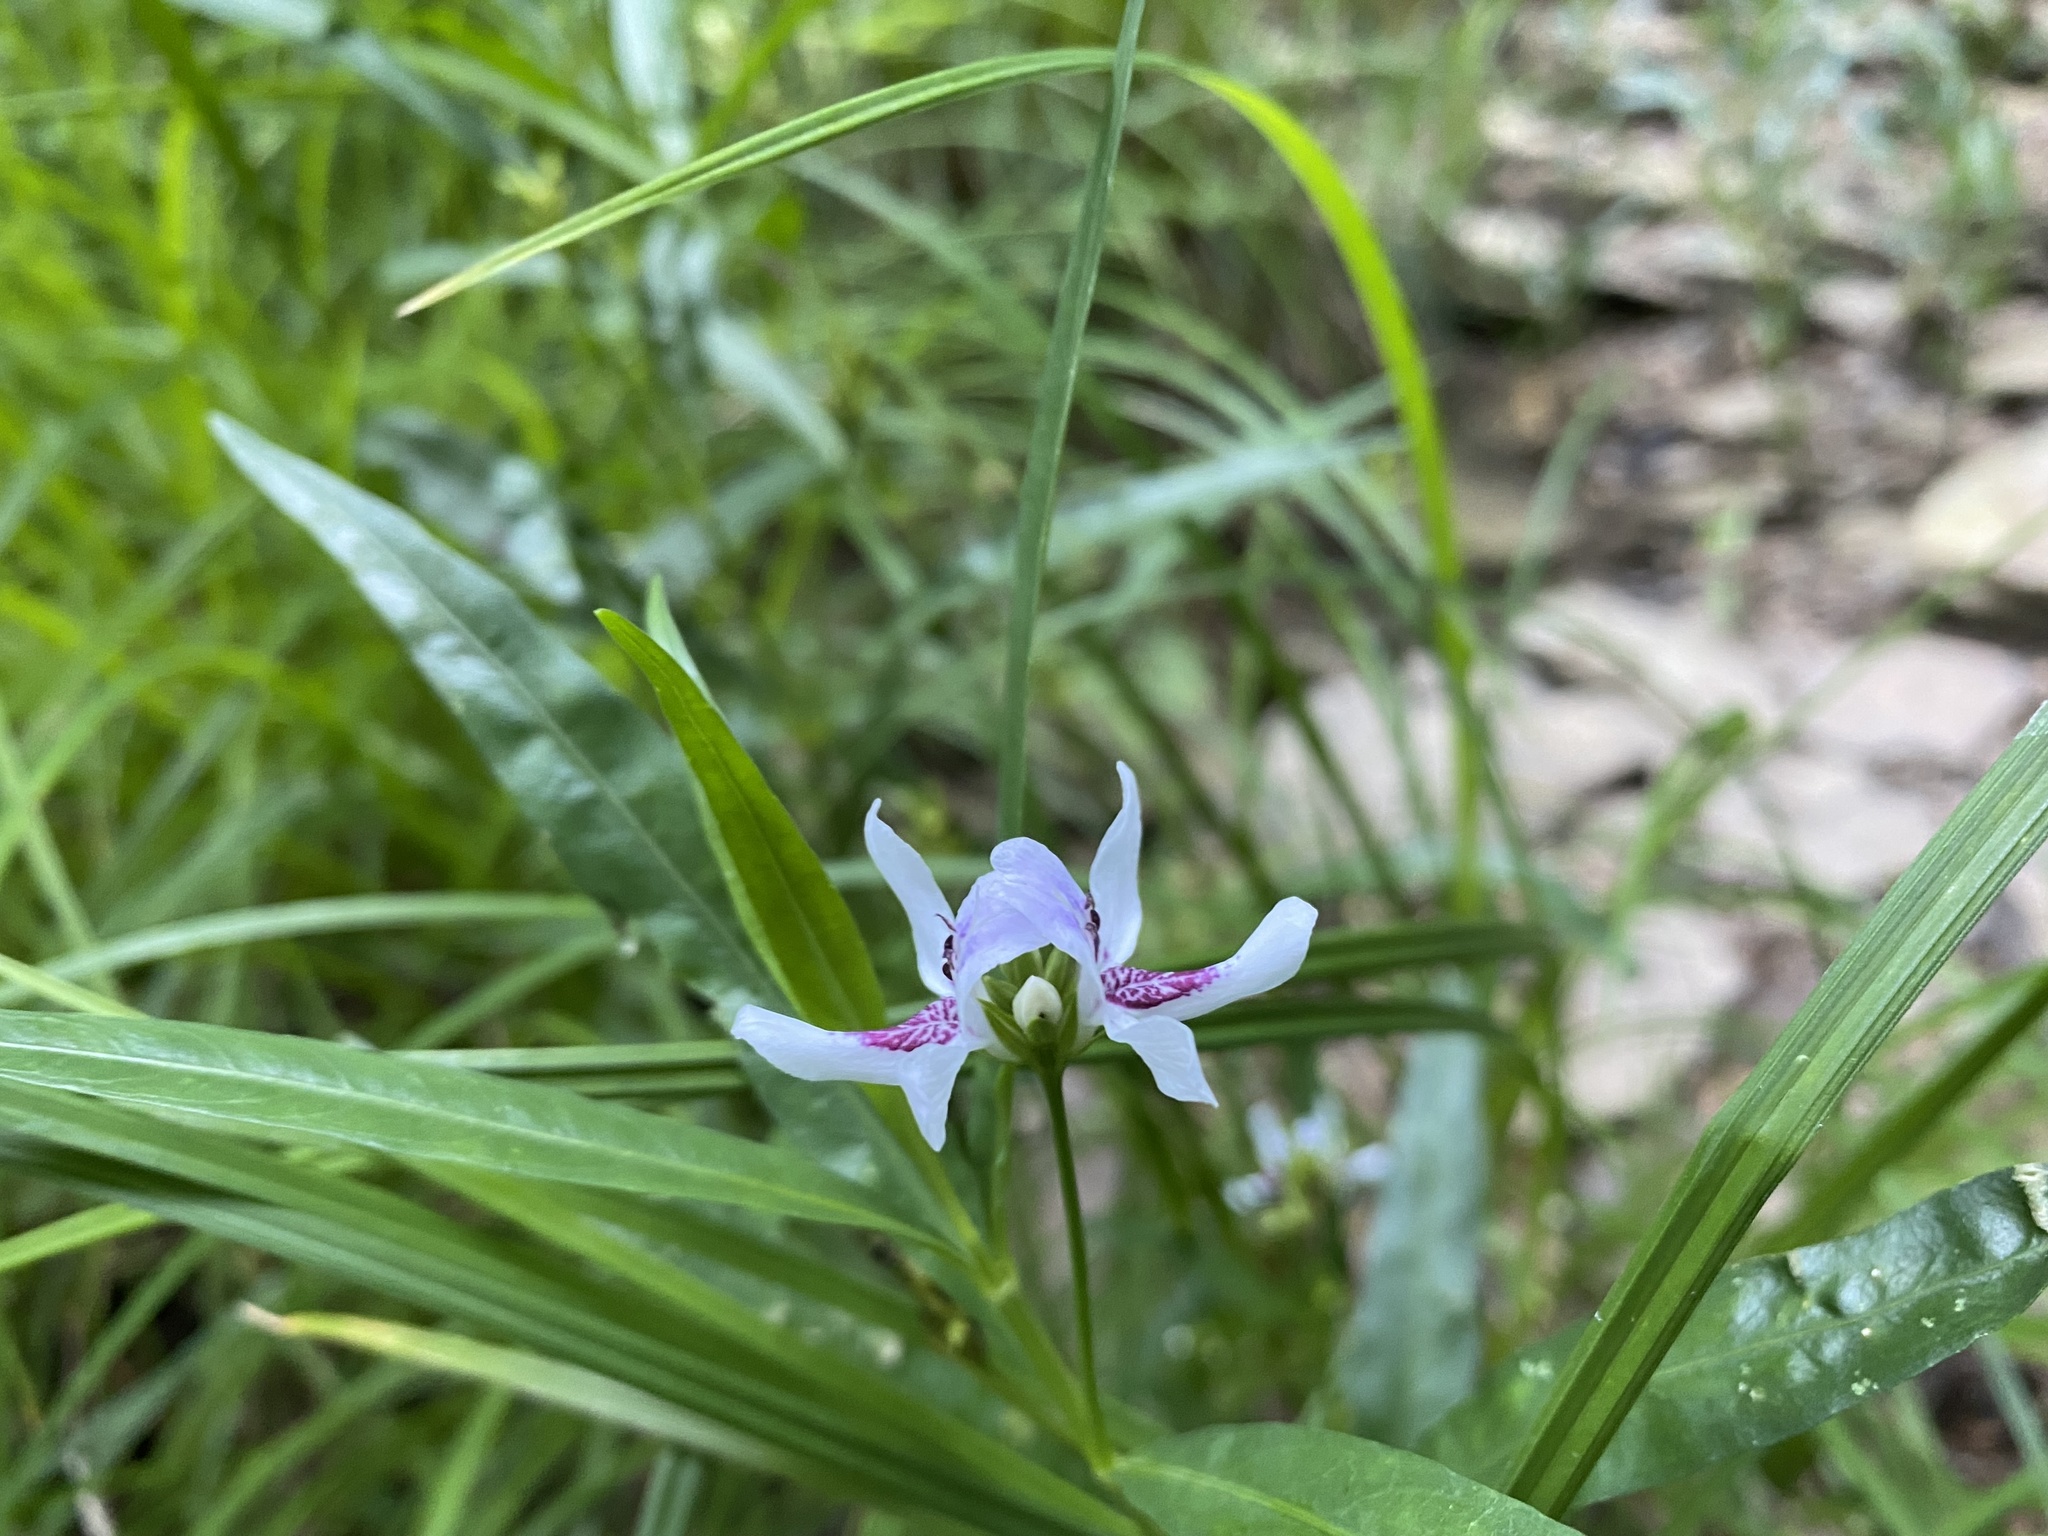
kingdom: Plantae
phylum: Tracheophyta
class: Magnoliopsida
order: Lamiales
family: Acanthaceae
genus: Dianthera
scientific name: Dianthera americana
